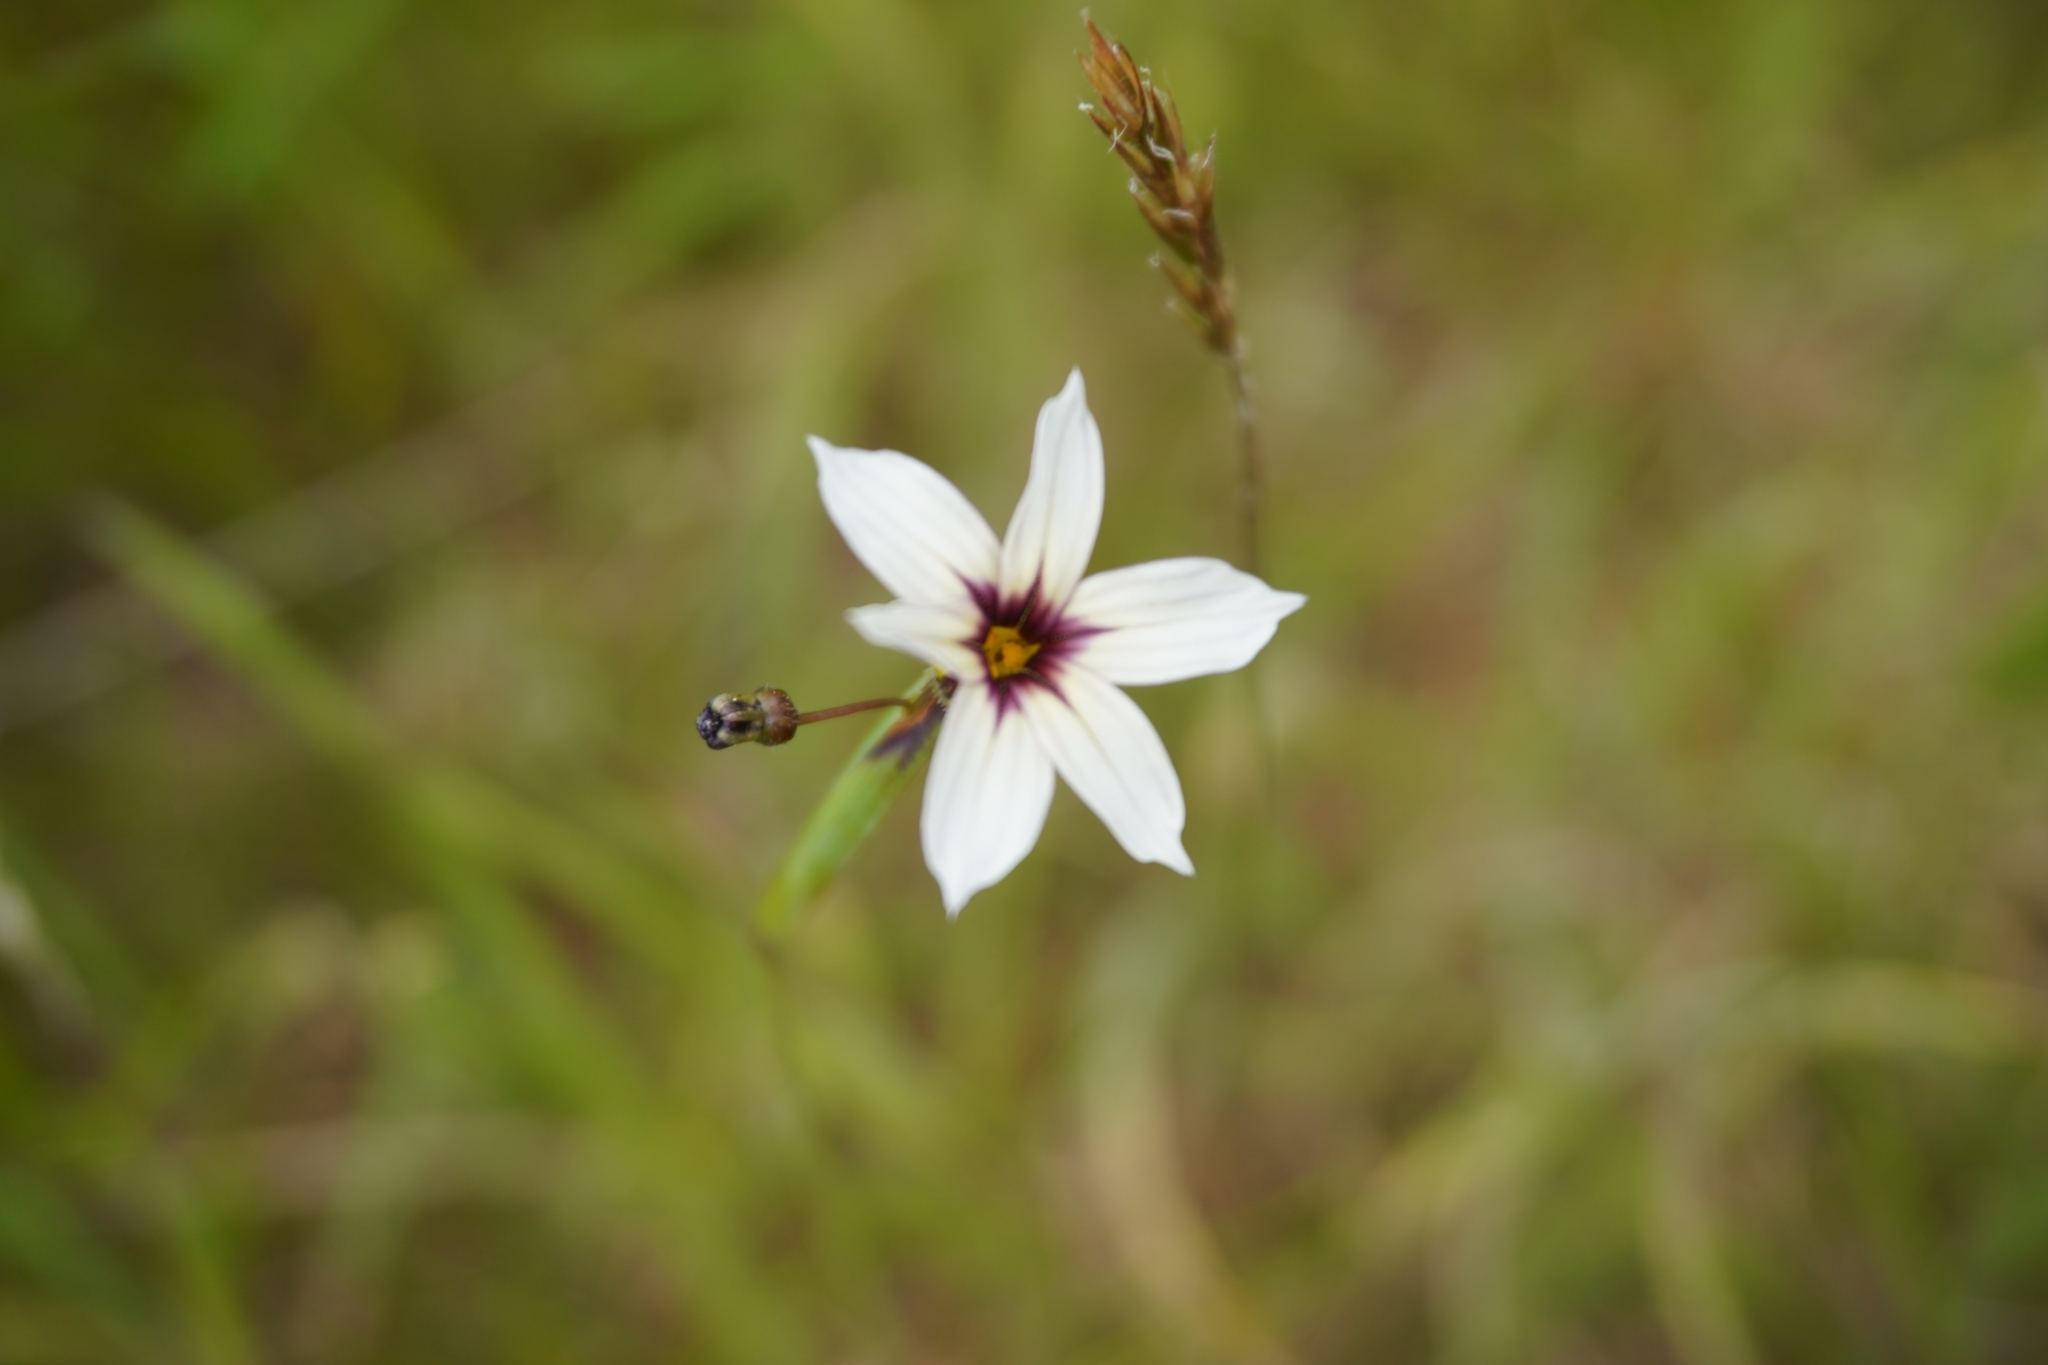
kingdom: Plantae
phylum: Tracheophyta
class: Liliopsida
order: Asparagales
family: Iridaceae
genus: Sisyrinchium
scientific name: Sisyrinchium micranthum
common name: Bermuda pigroot
